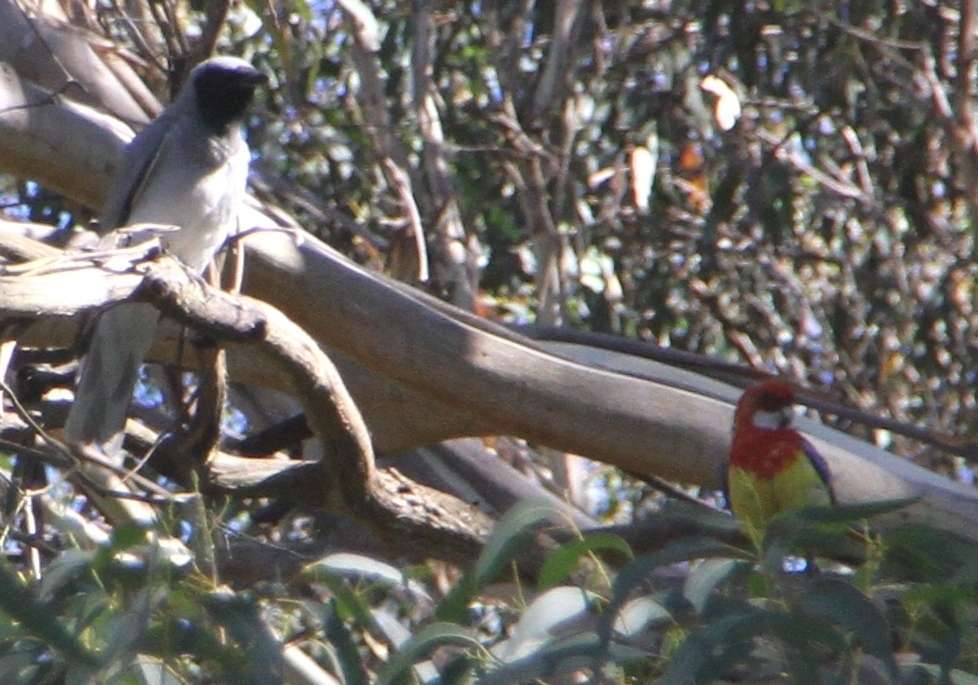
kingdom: Animalia
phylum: Chordata
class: Aves
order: Psittaciformes
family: Psittacidae
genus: Platycercus
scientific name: Platycercus eximius
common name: Eastern rosella
